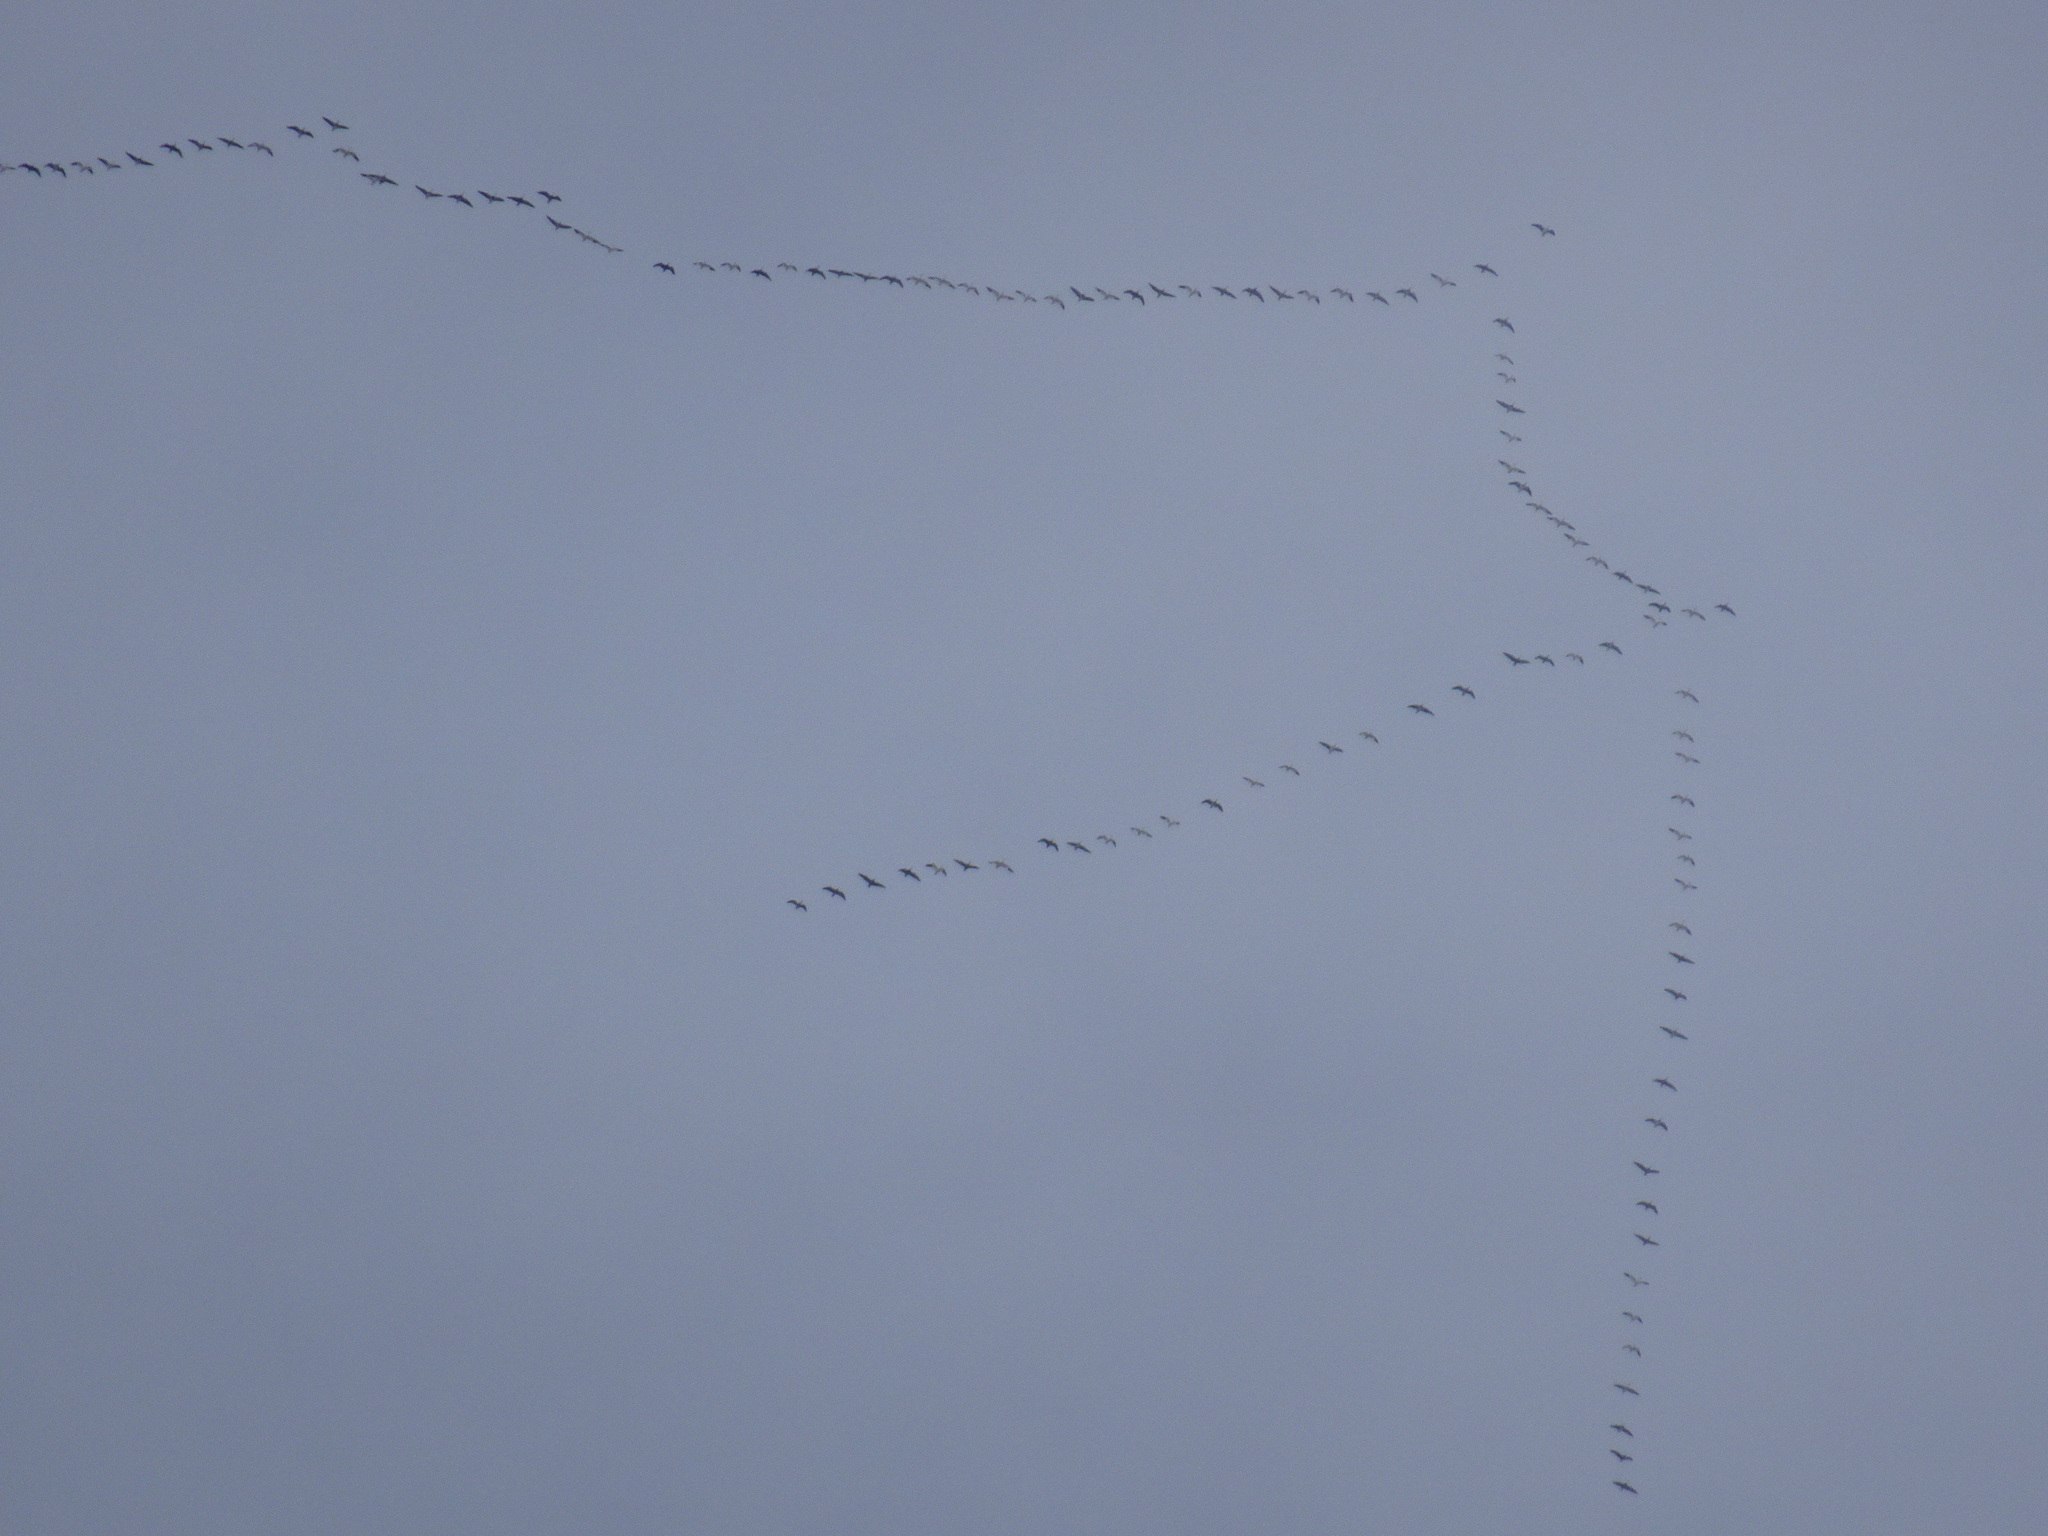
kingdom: Animalia
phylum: Chordata
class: Aves
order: Anseriformes
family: Anatidae
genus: Anser
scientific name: Anser caerulescens
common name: Snow goose
